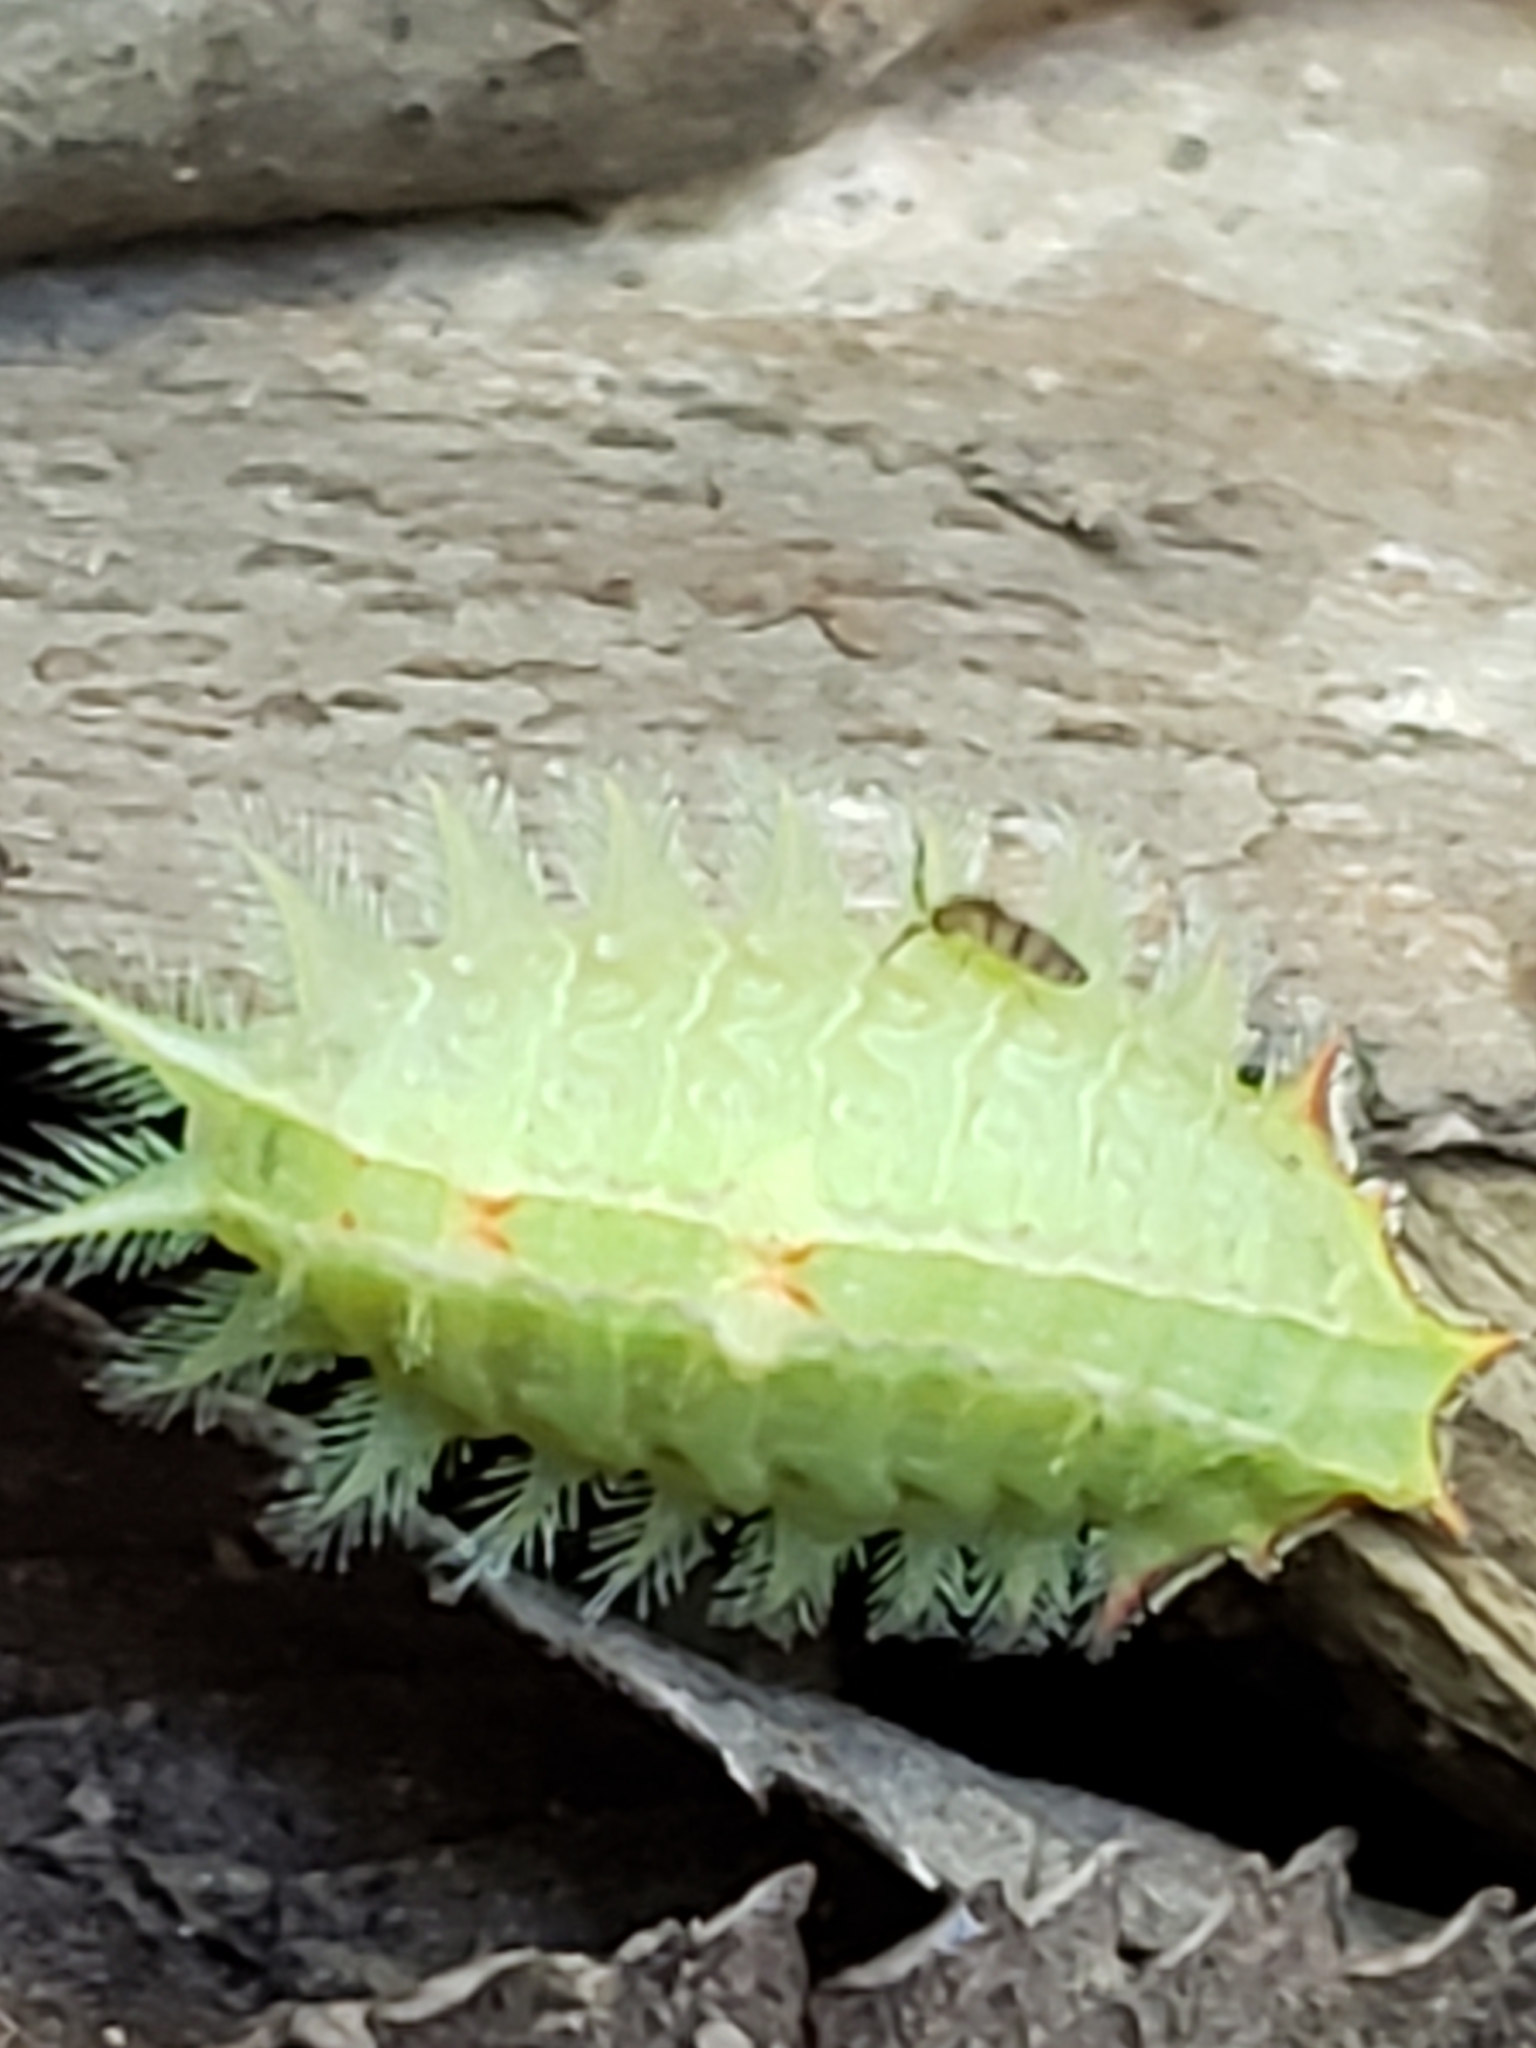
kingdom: Animalia
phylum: Arthropoda
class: Insecta
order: Lepidoptera
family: Limacodidae
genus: Isa
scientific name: Isa textula
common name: Crowned slug moth
